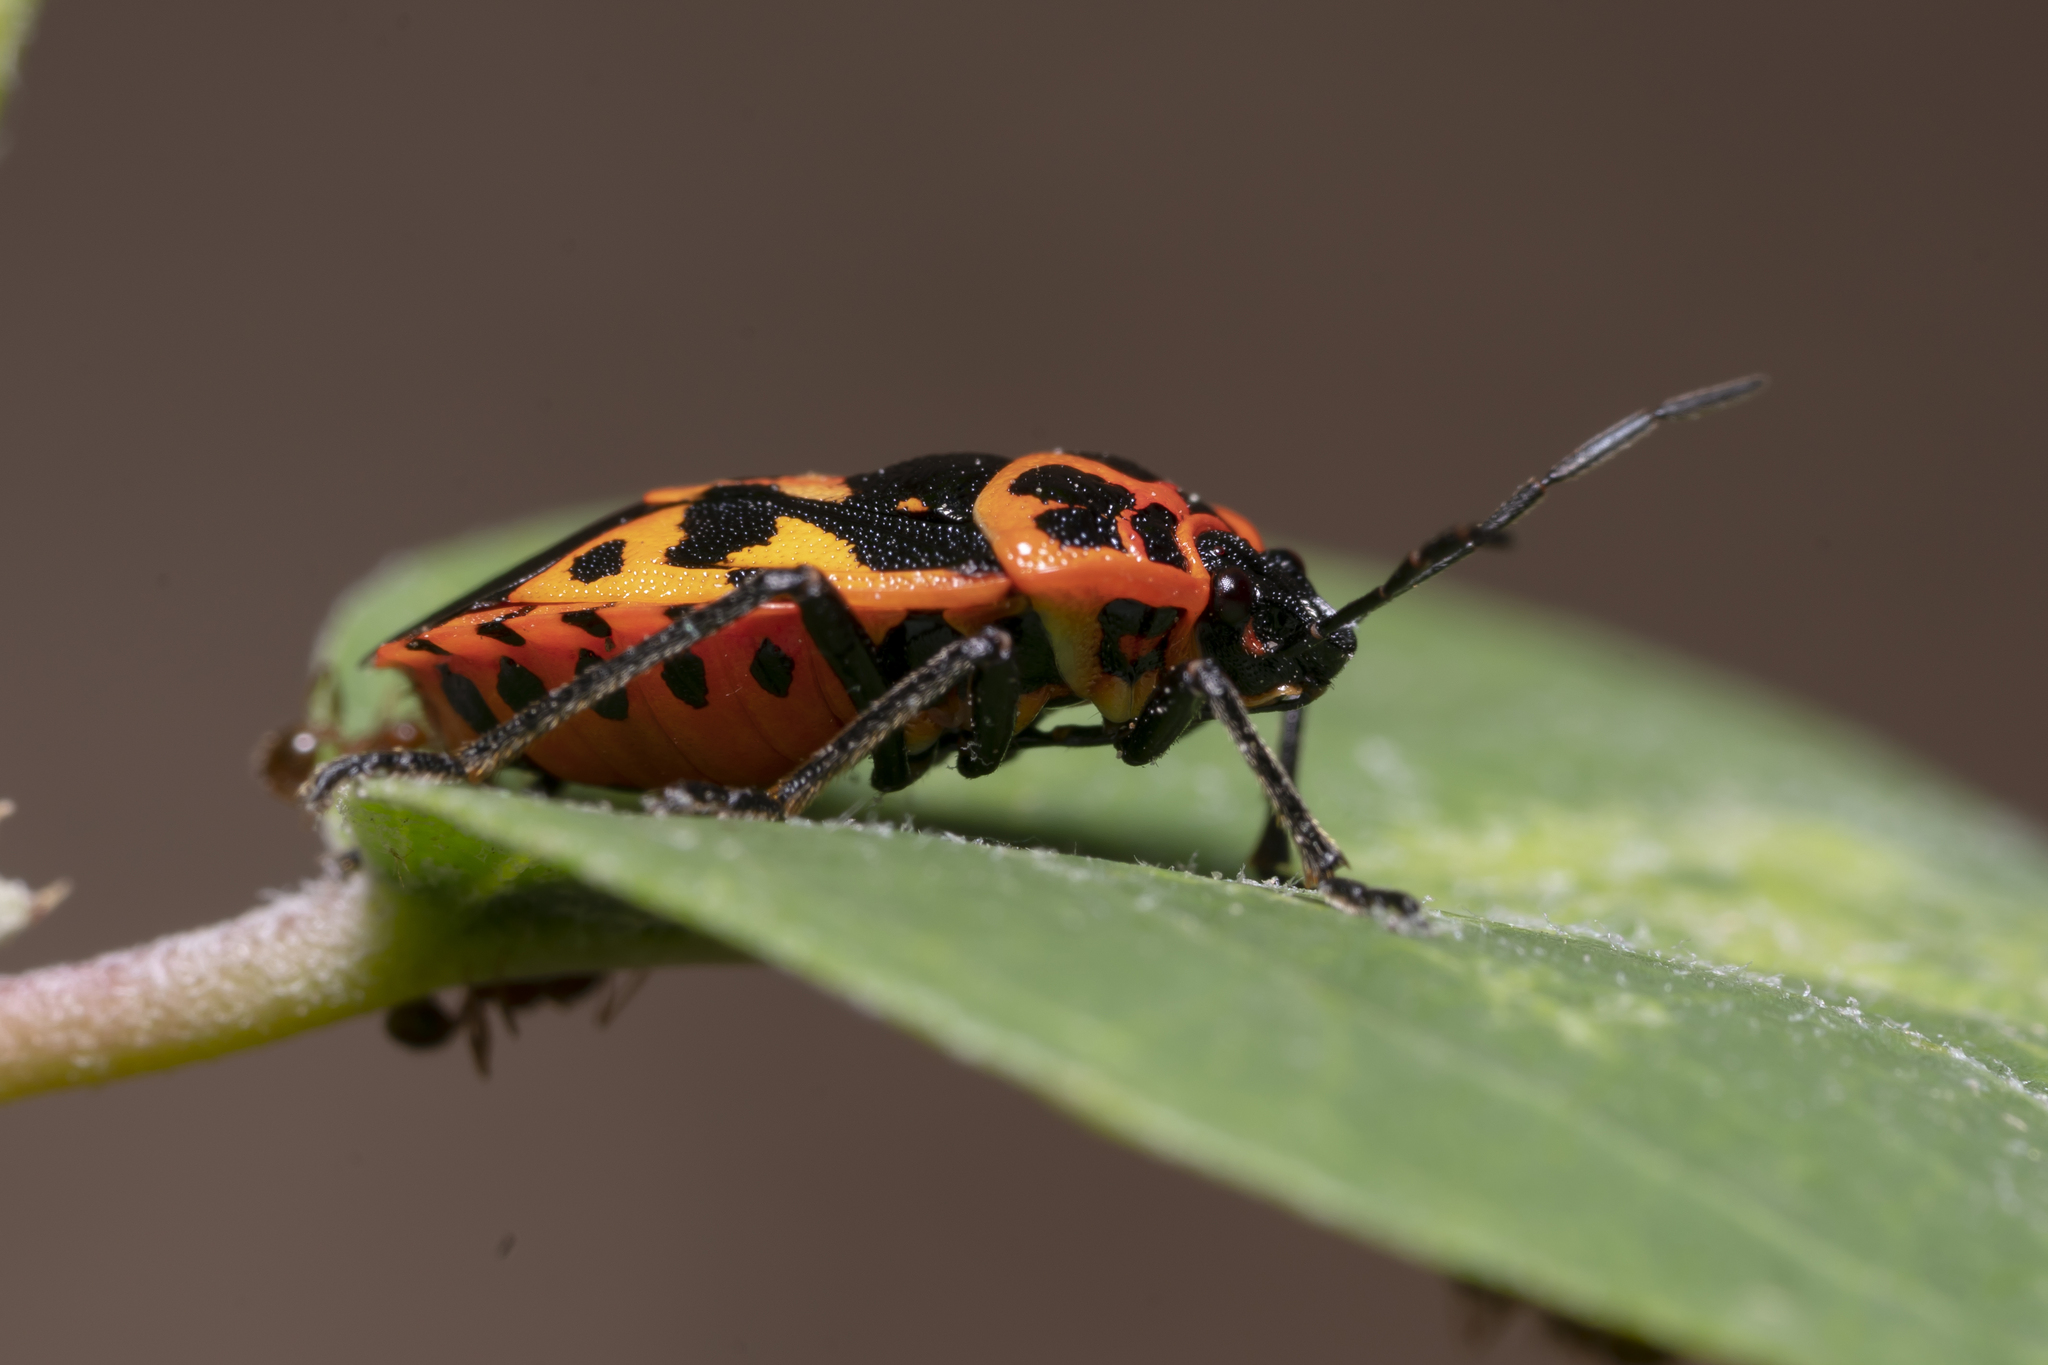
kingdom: Animalia
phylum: Arthropoda
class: Insecta
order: Hemiptera
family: Pentatomidae
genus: Eurydema
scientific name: Eurydema eckerleini
